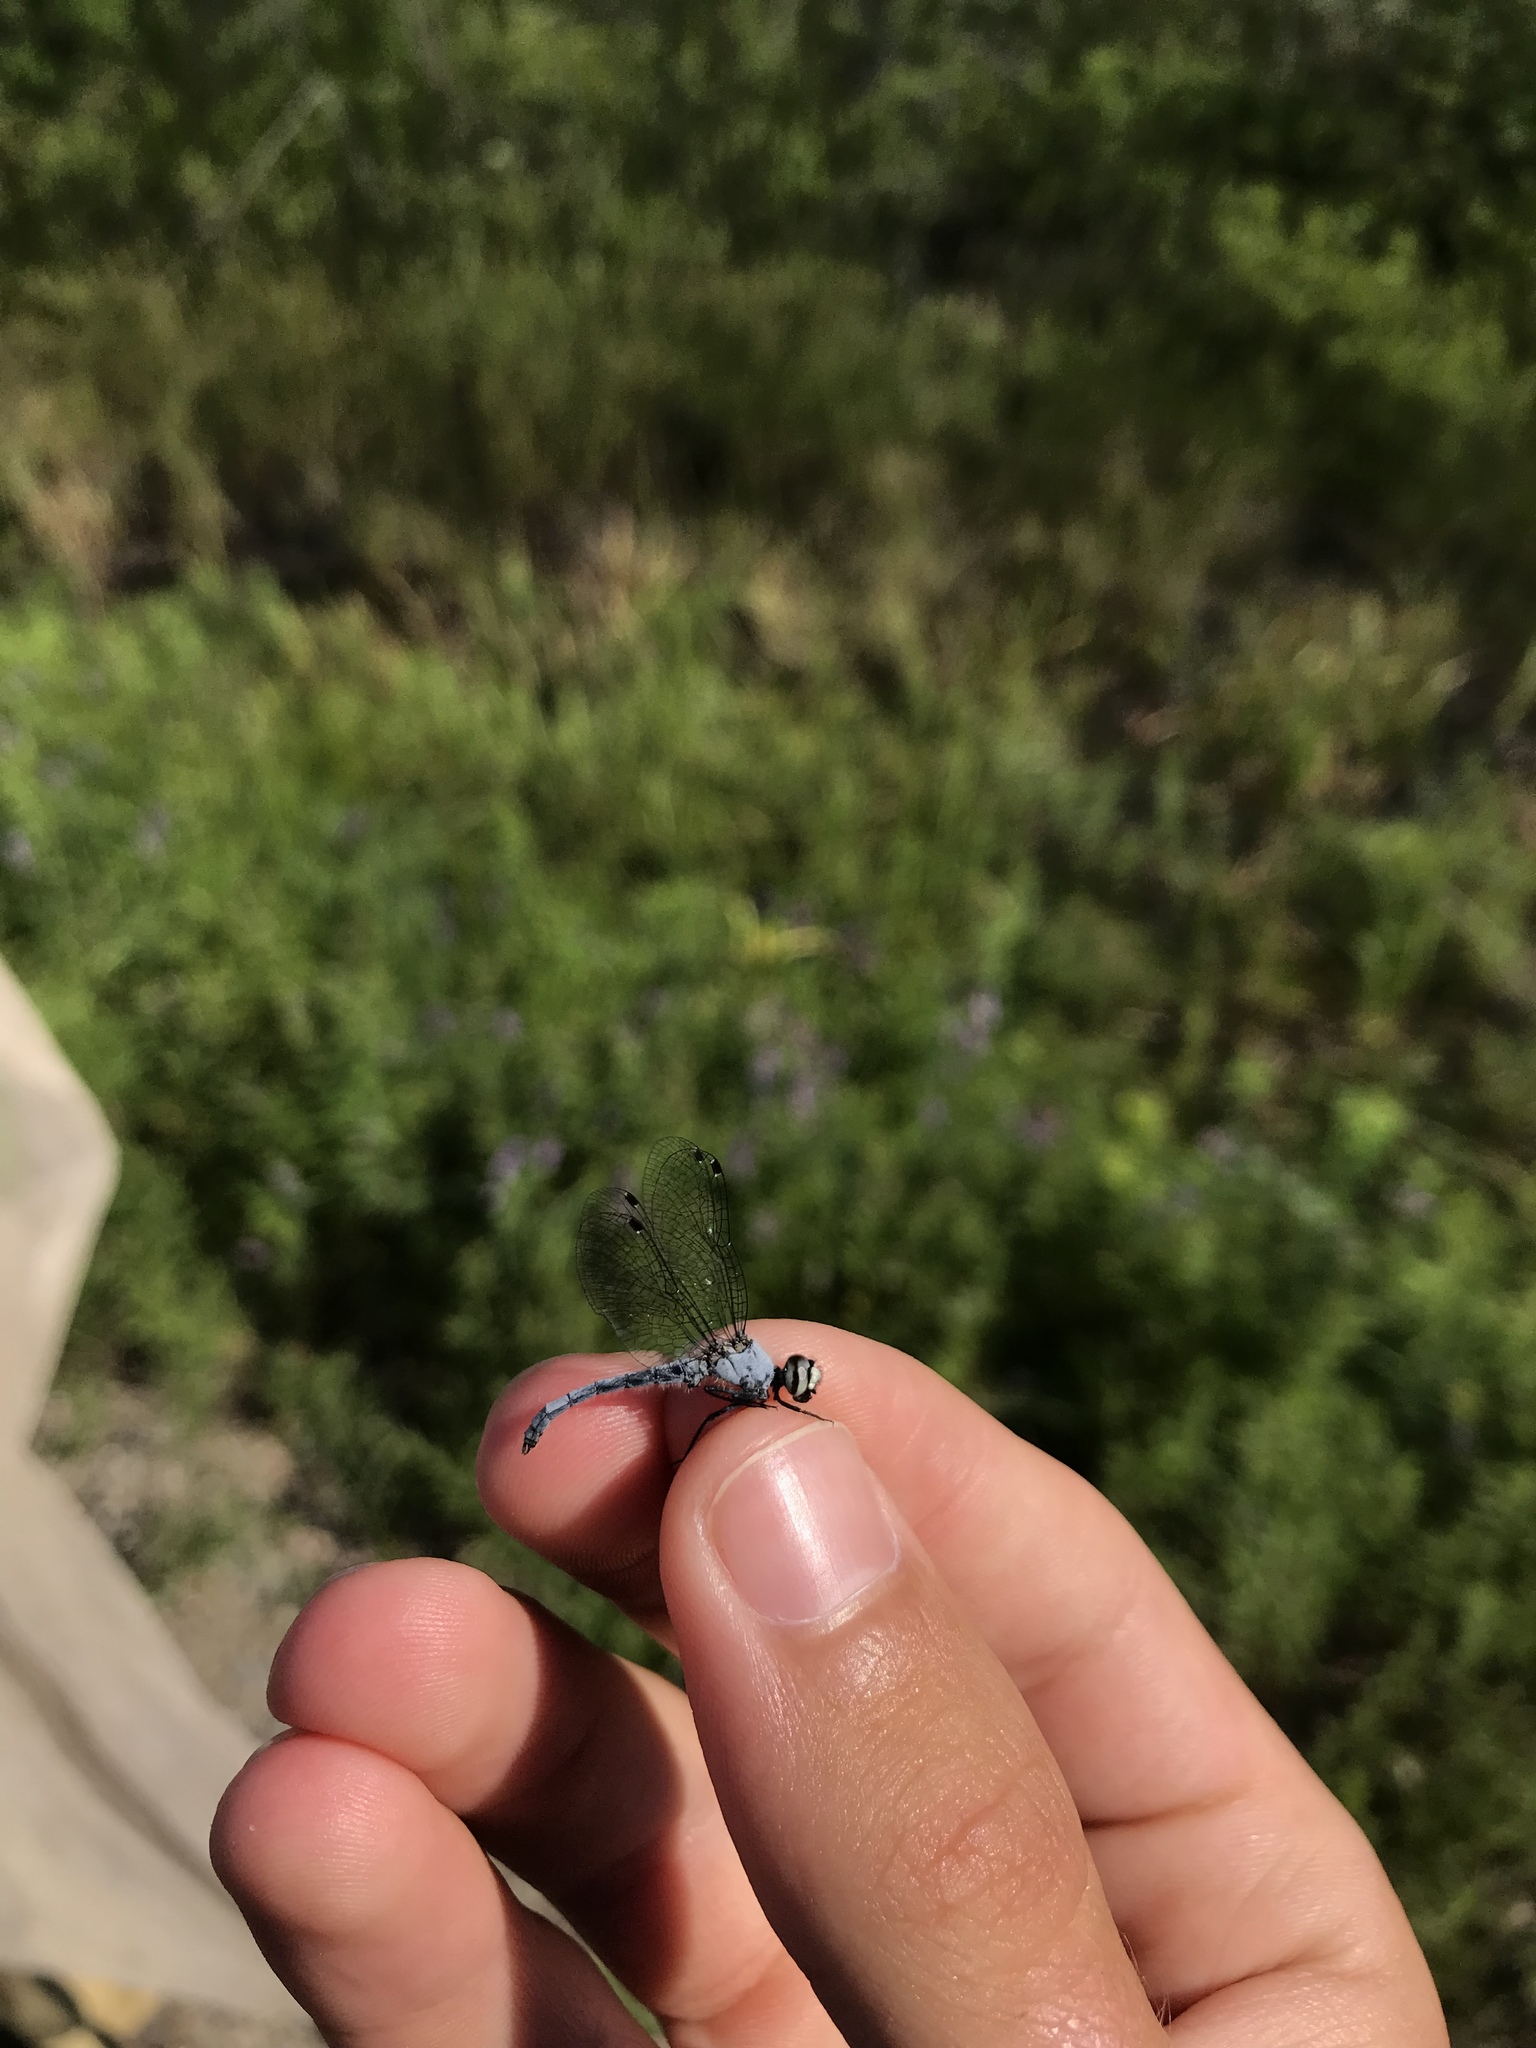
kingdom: Animalia
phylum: Arthropoda
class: Insecta
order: Odonata
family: Libellulidae
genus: Nannothemis
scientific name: Nannothemis bella
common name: Elfin skimmer
